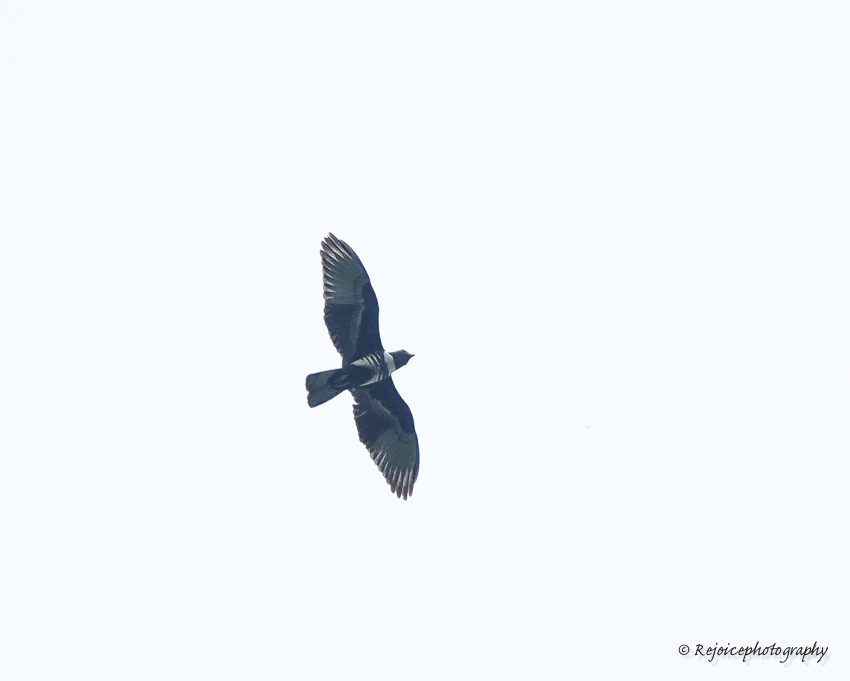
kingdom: Animalia
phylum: Chordata
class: Aves
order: Accipitriformes
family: Accipitridae
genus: Aviceda
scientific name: Aviceda leuphotes
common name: Black baza
